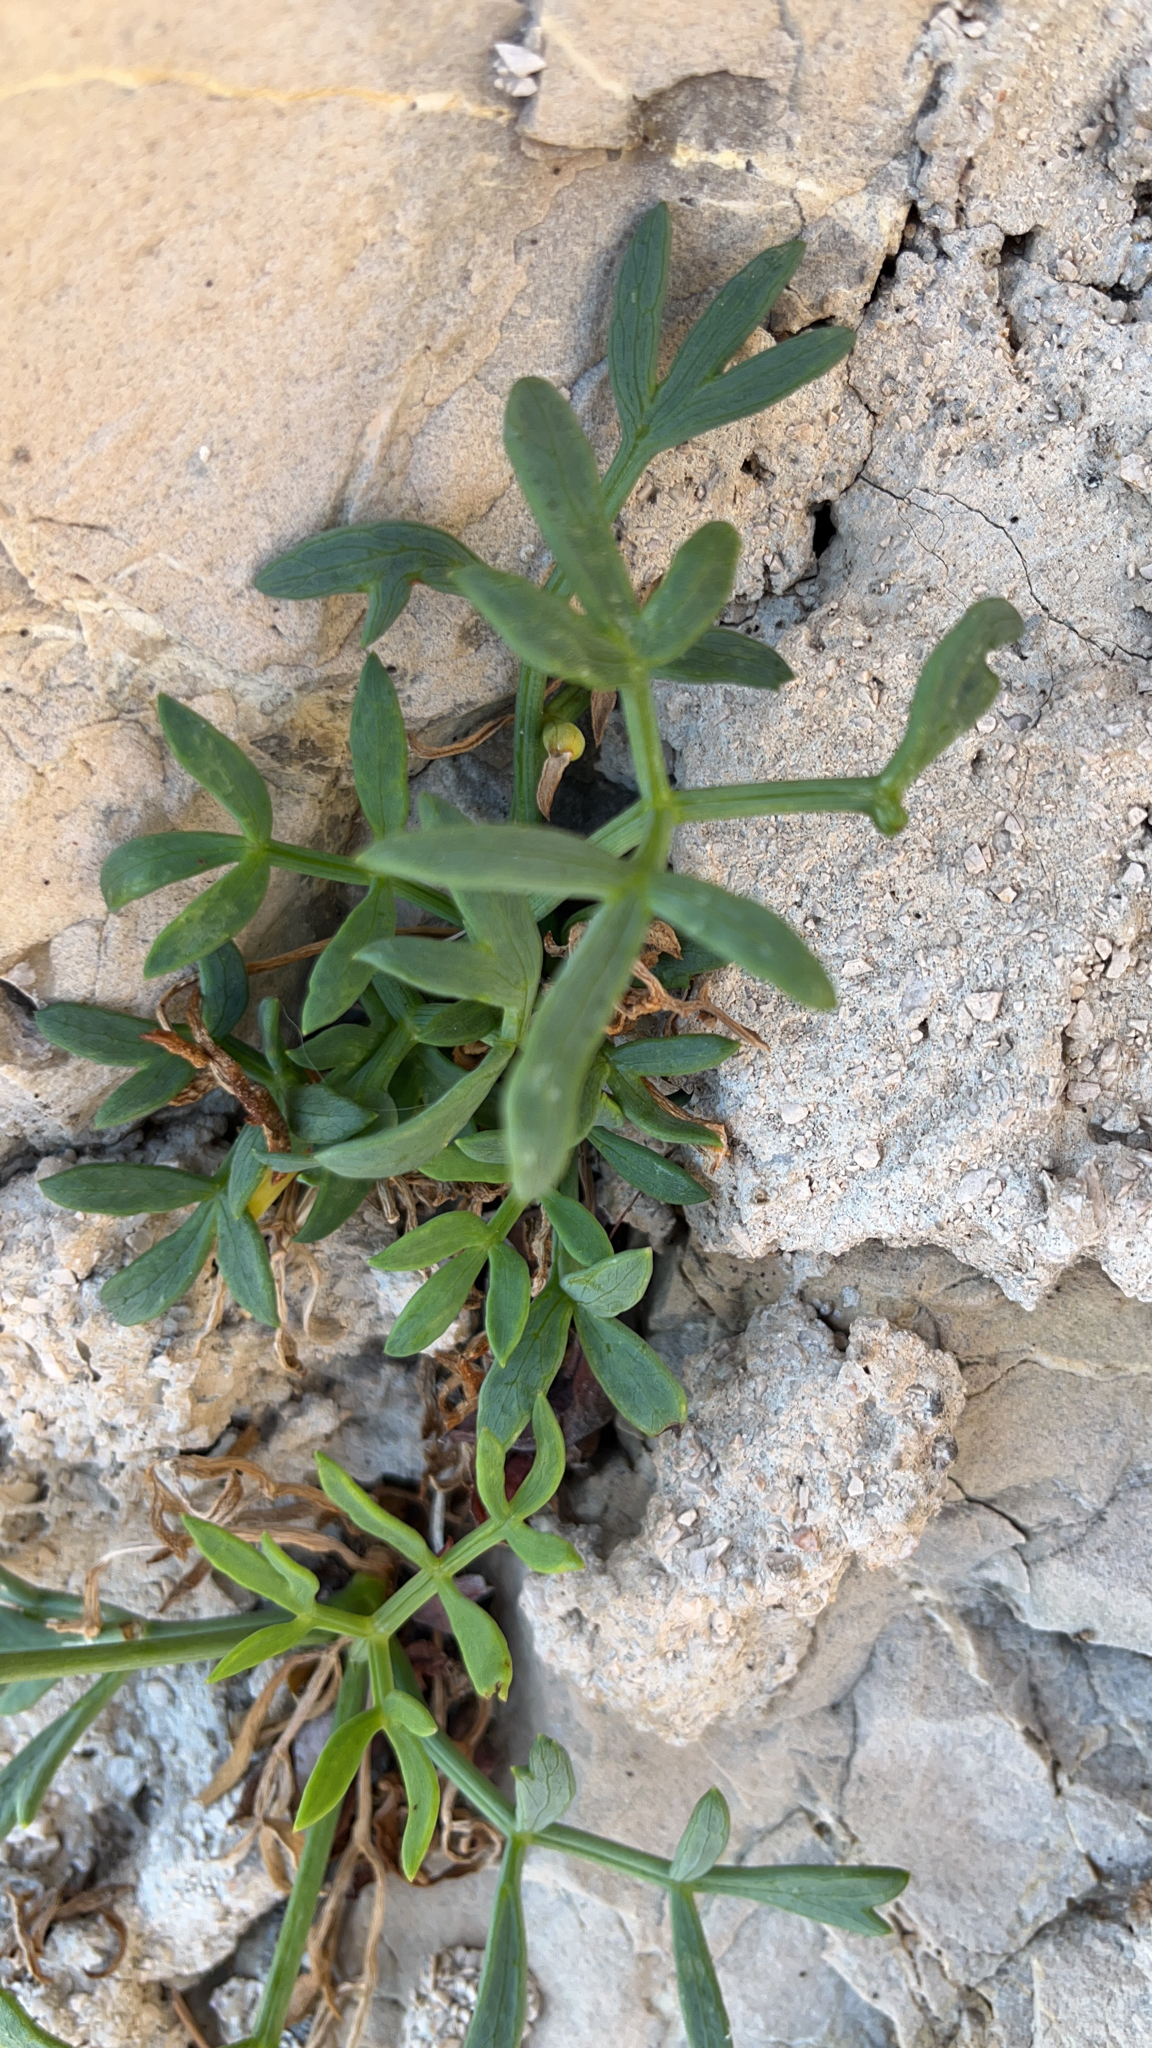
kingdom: Plantae
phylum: Tracheophyta
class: Magnoliopsida
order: Apiales
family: Apiaceae
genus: Crithmum
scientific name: Crithmum maritimum
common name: Rock samphire
